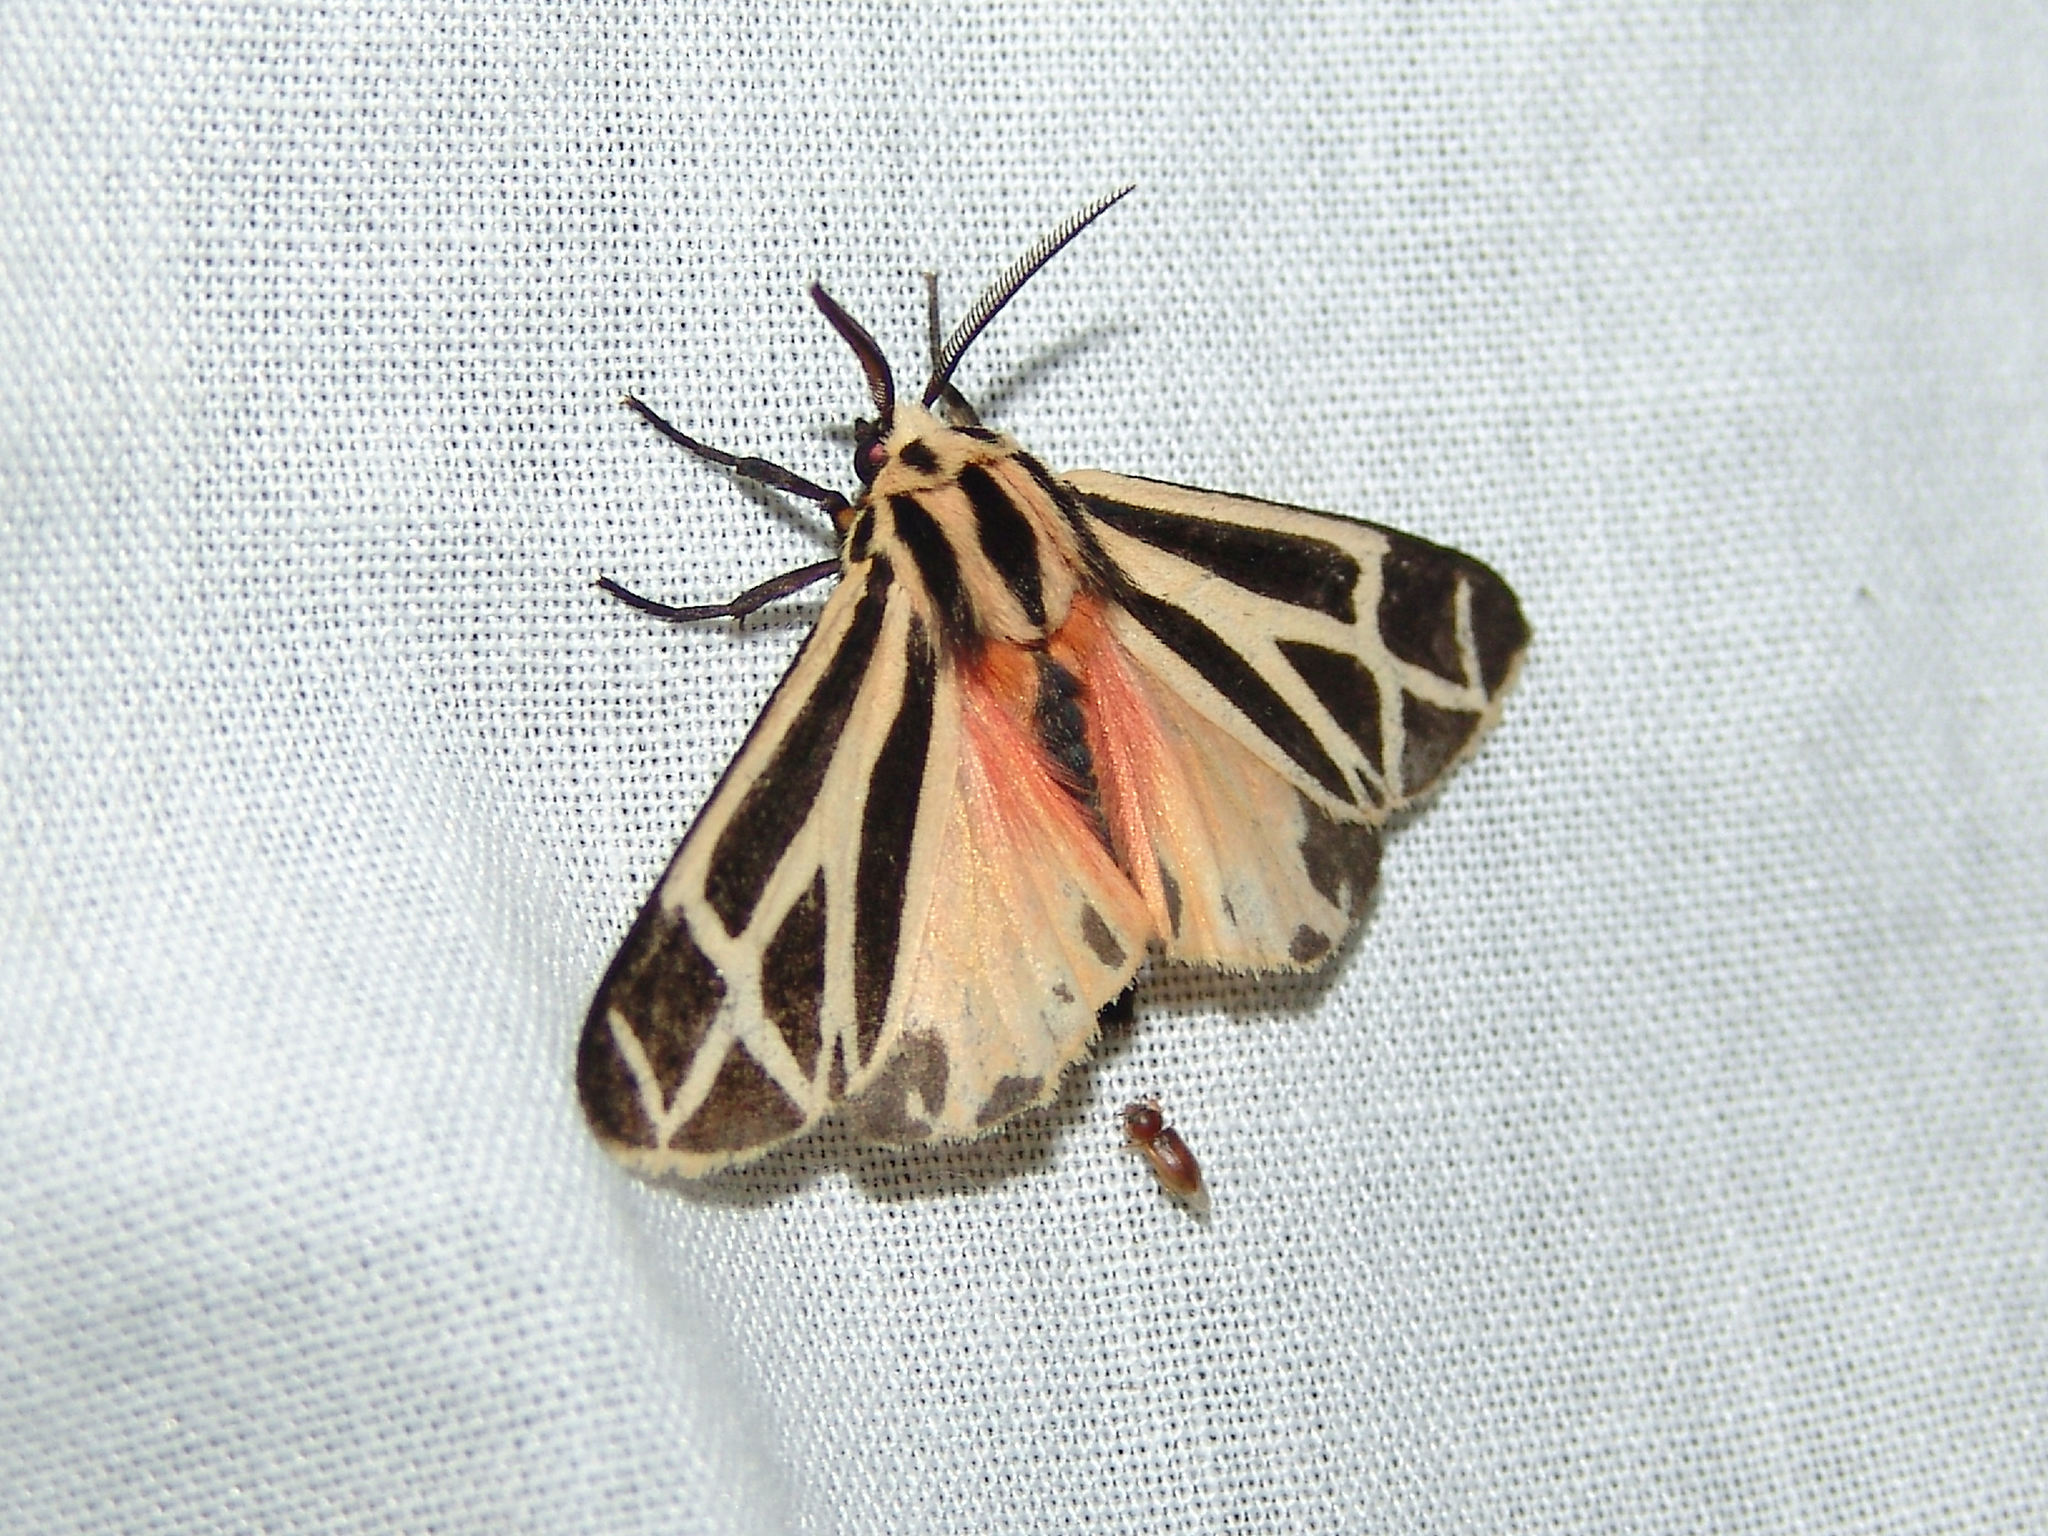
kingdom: Animalia
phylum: Arthropoda
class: Insecta
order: Lepidoptera
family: Erebidae
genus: Apantesis
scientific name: Apantesis phalerata
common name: Harnessed tiger moth
